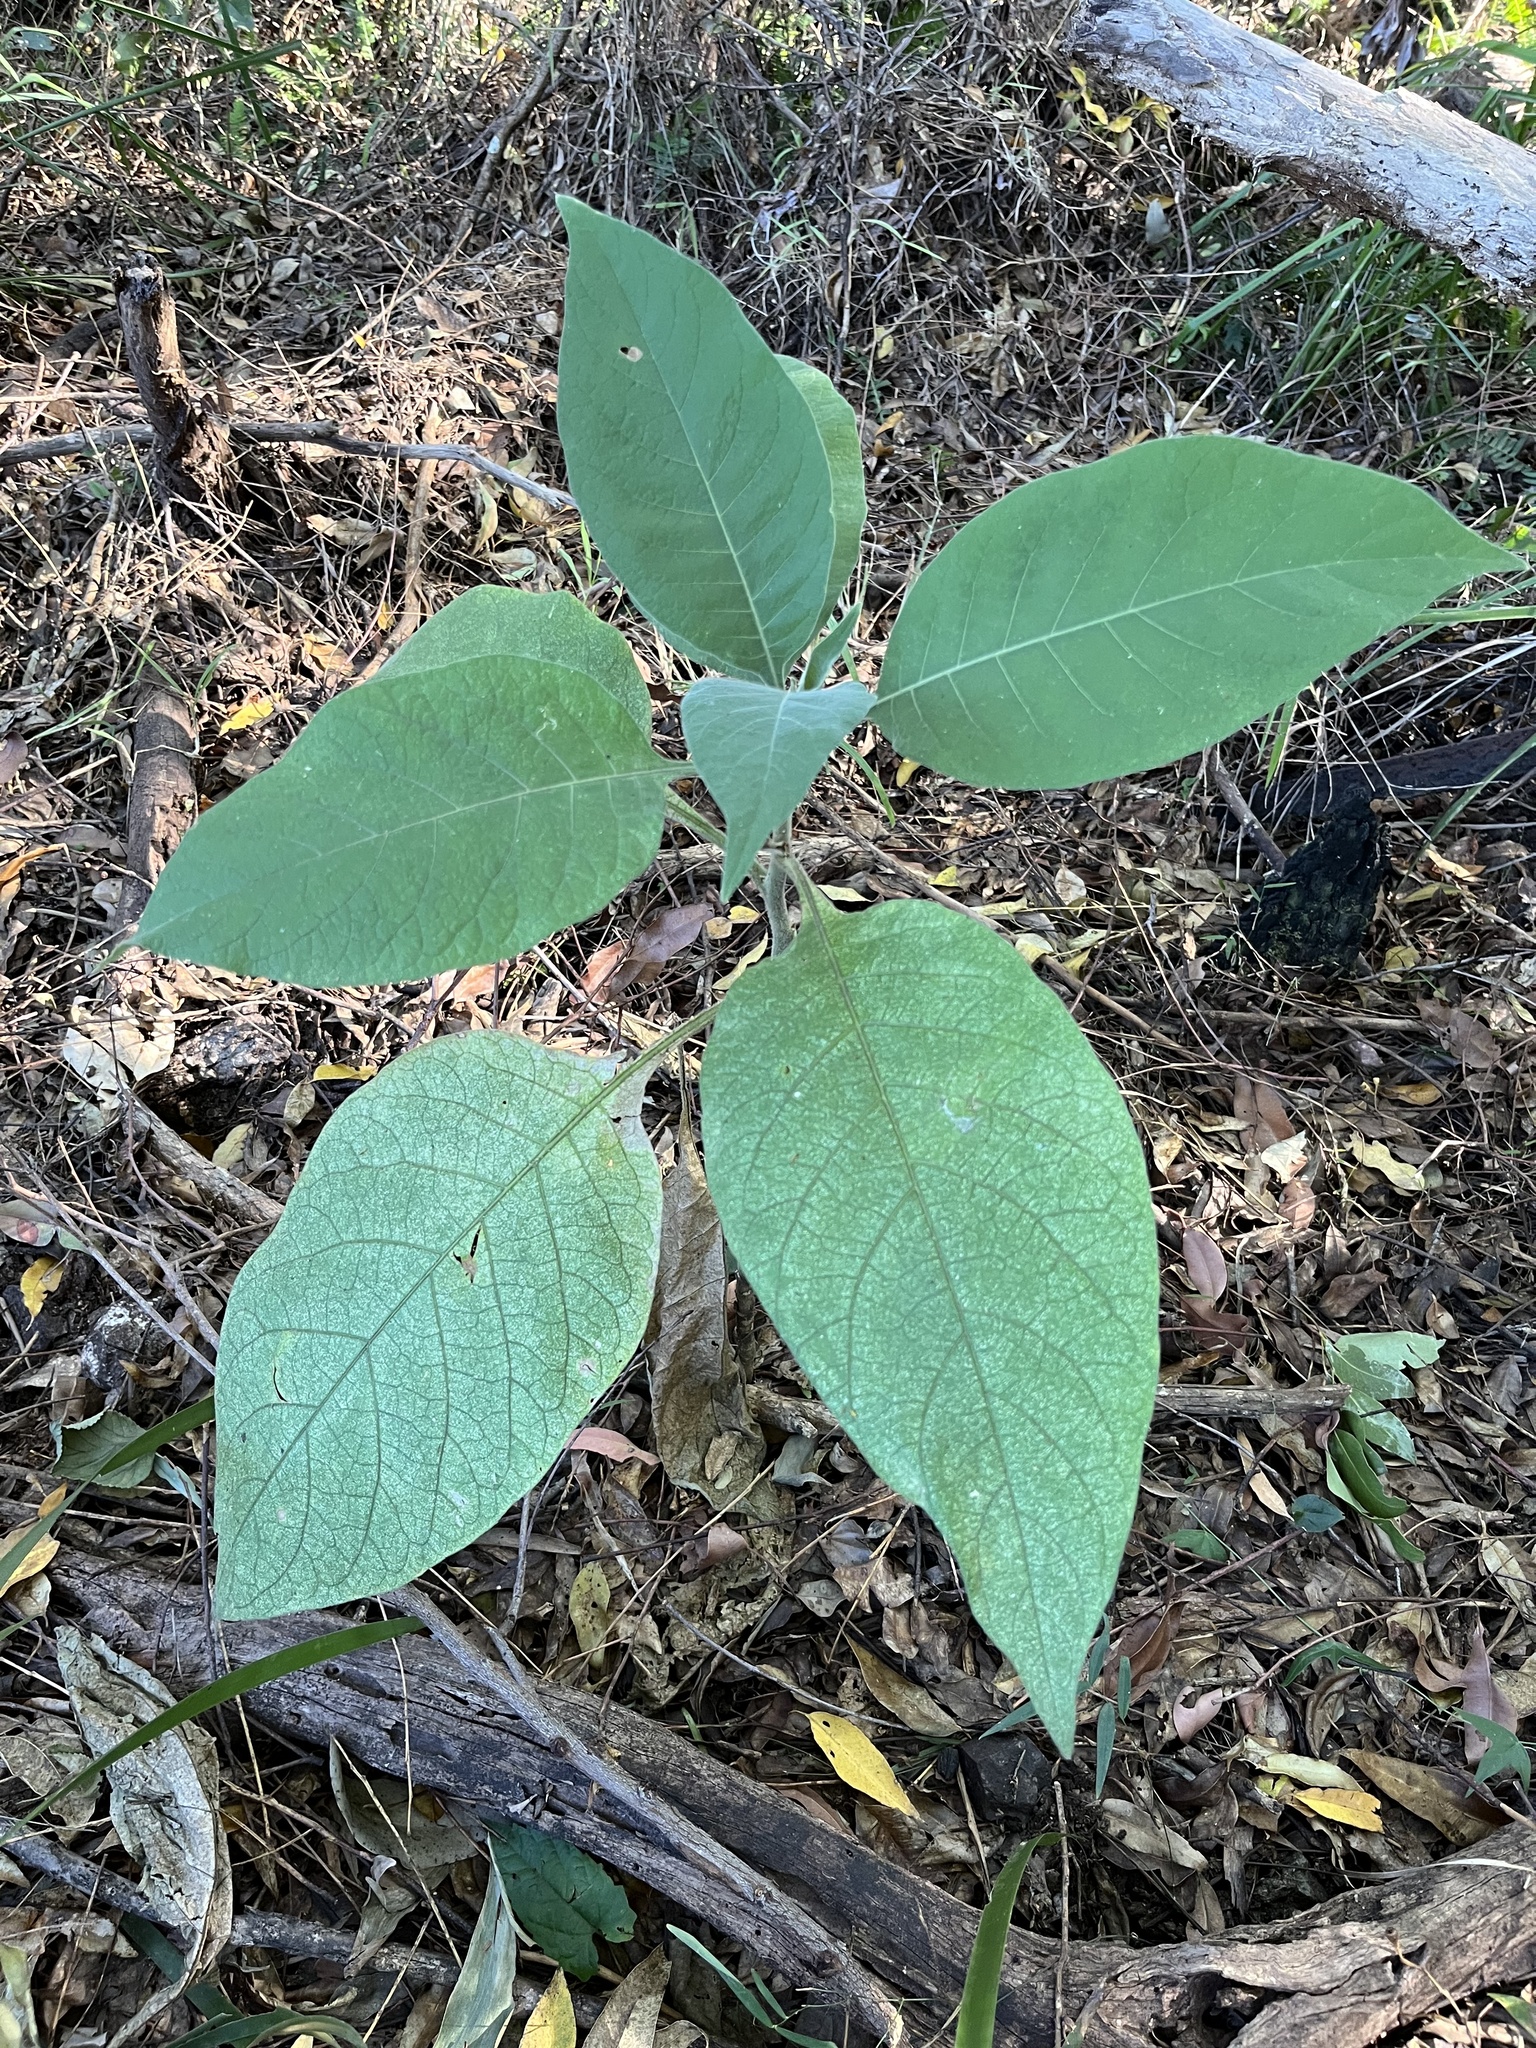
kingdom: Plantae
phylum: Tracheophyta
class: Magnoliopsida
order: Solanales
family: Solanaceae
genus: Solanum
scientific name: Solanum mauritianum
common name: Earleaf nightshade
